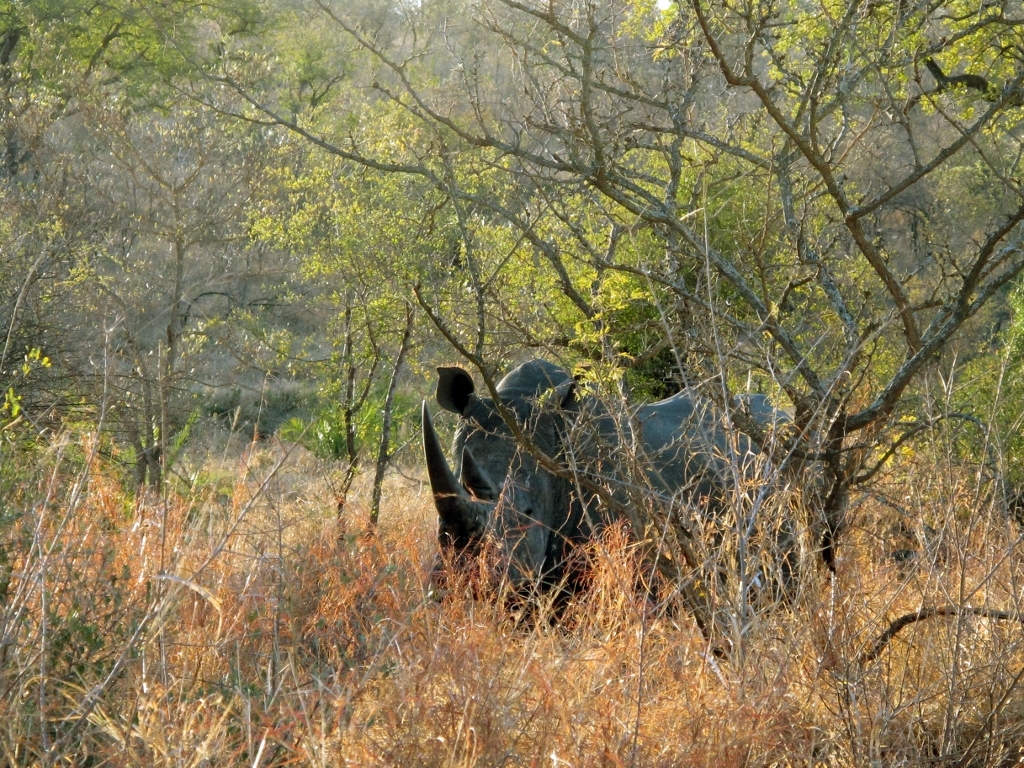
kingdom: Animalia
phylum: Chordata
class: Mammalia
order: Perissodactyla
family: Rhinocerotidae
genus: Ceratotherium
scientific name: Ceratotherium simum
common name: White rhinoceros
